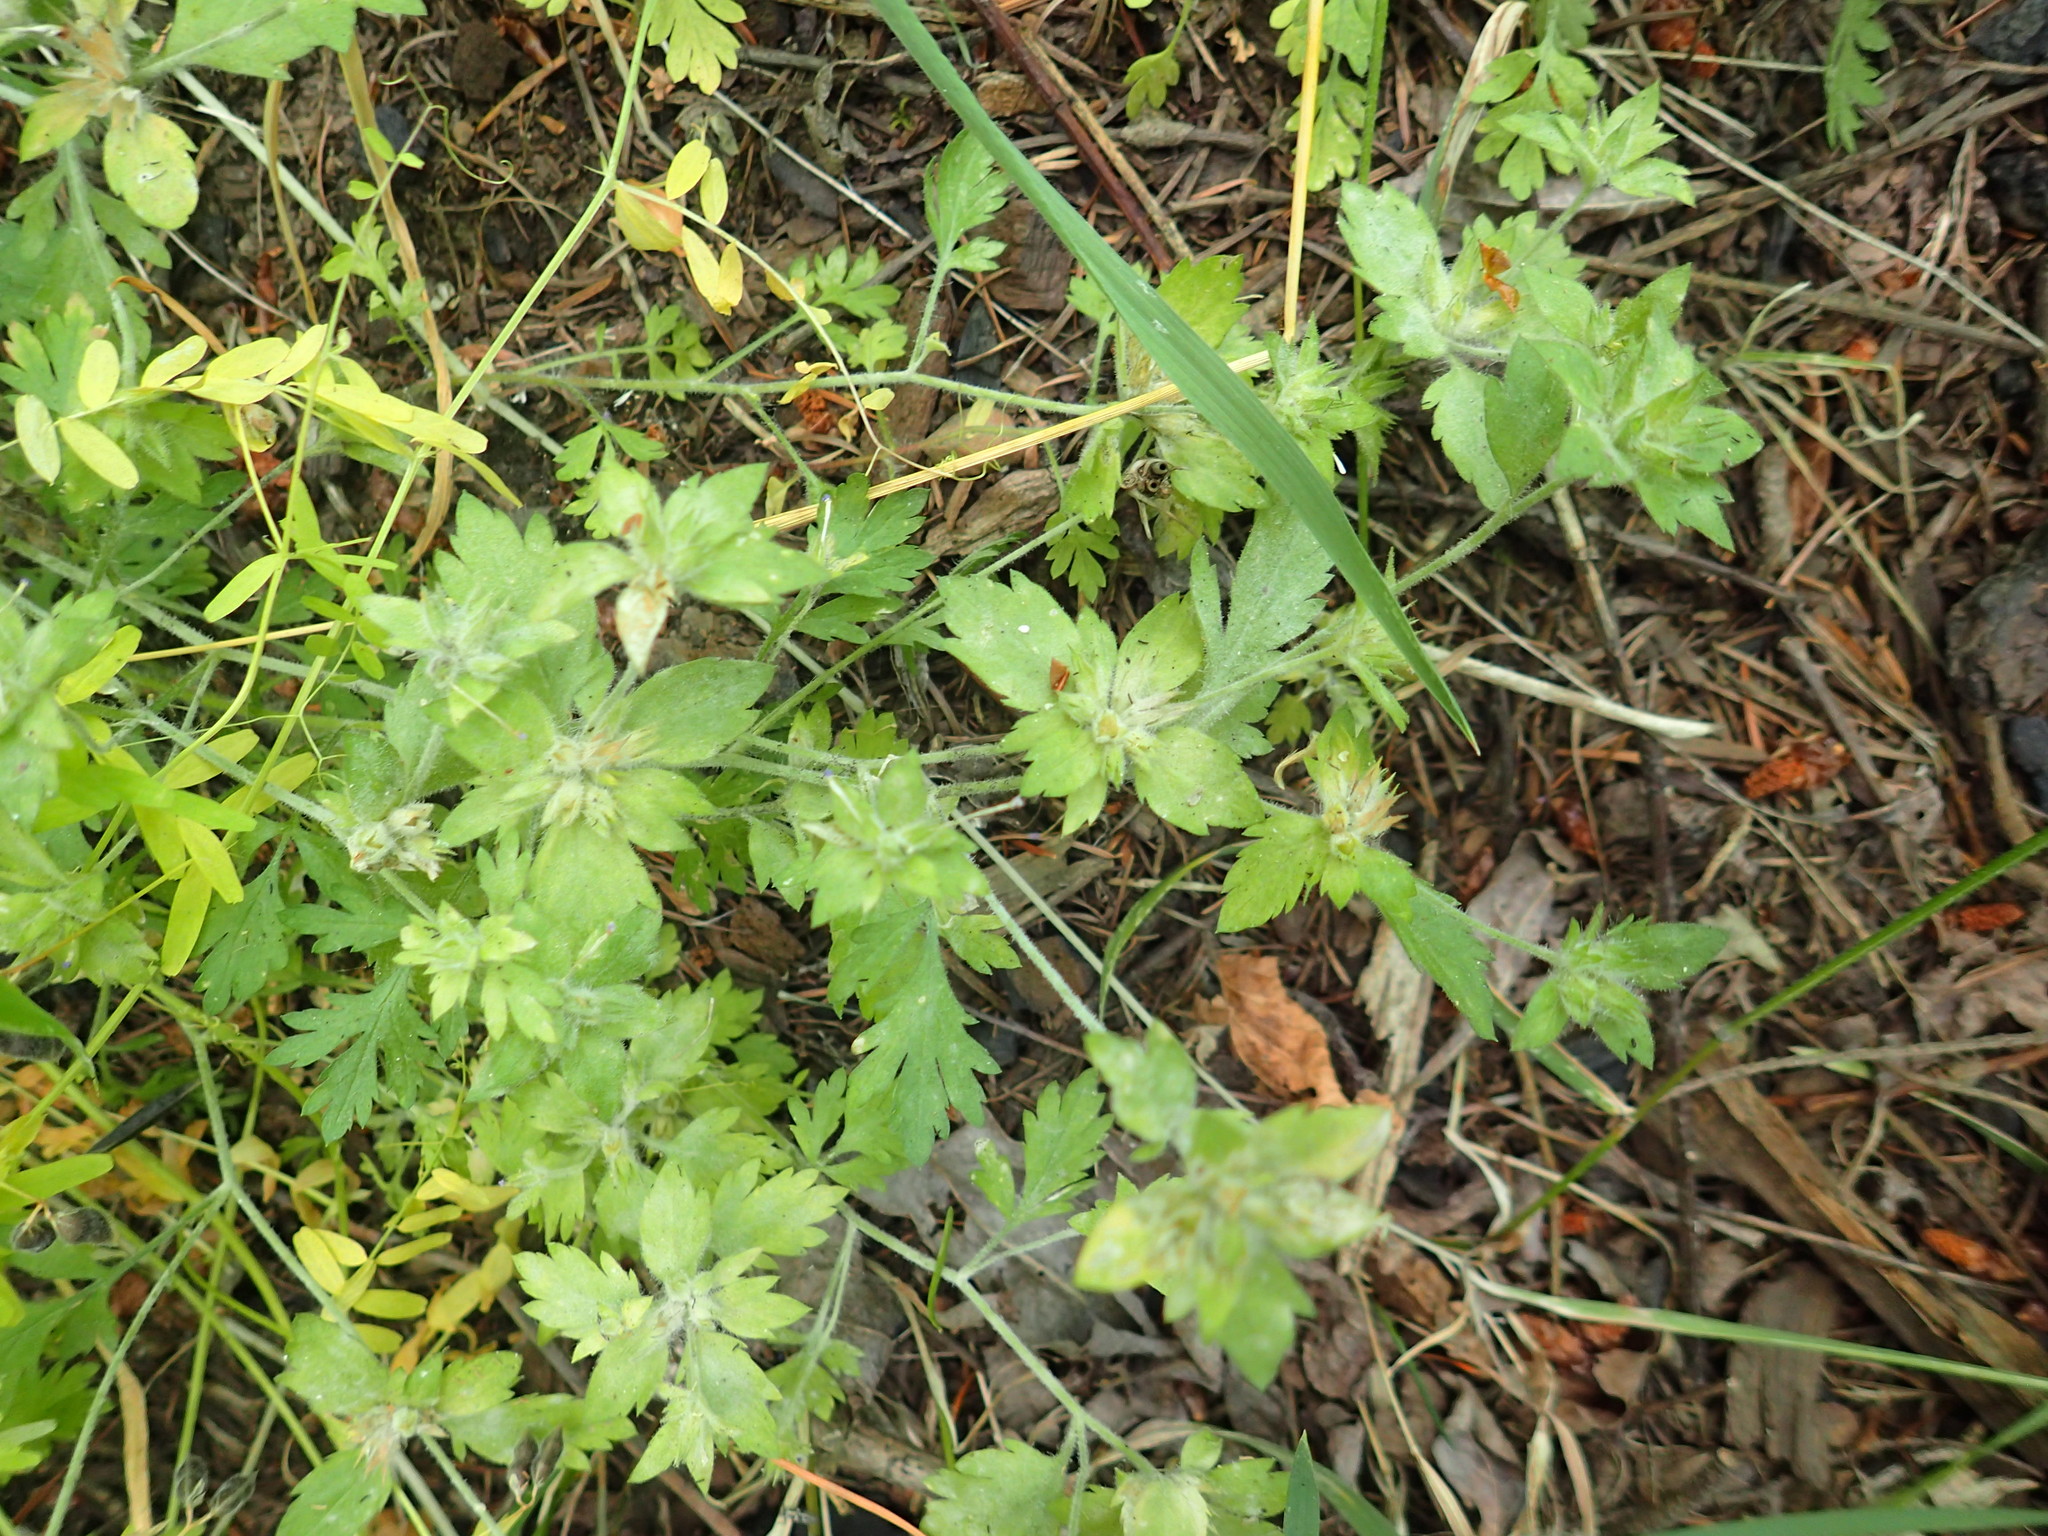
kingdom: Plantae
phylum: Tracheophyta
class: Magnoliopsida
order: Ericales
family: Polemoniaceae
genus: Collomia
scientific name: Collomia heterophylla
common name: Variable-leaved collomia
